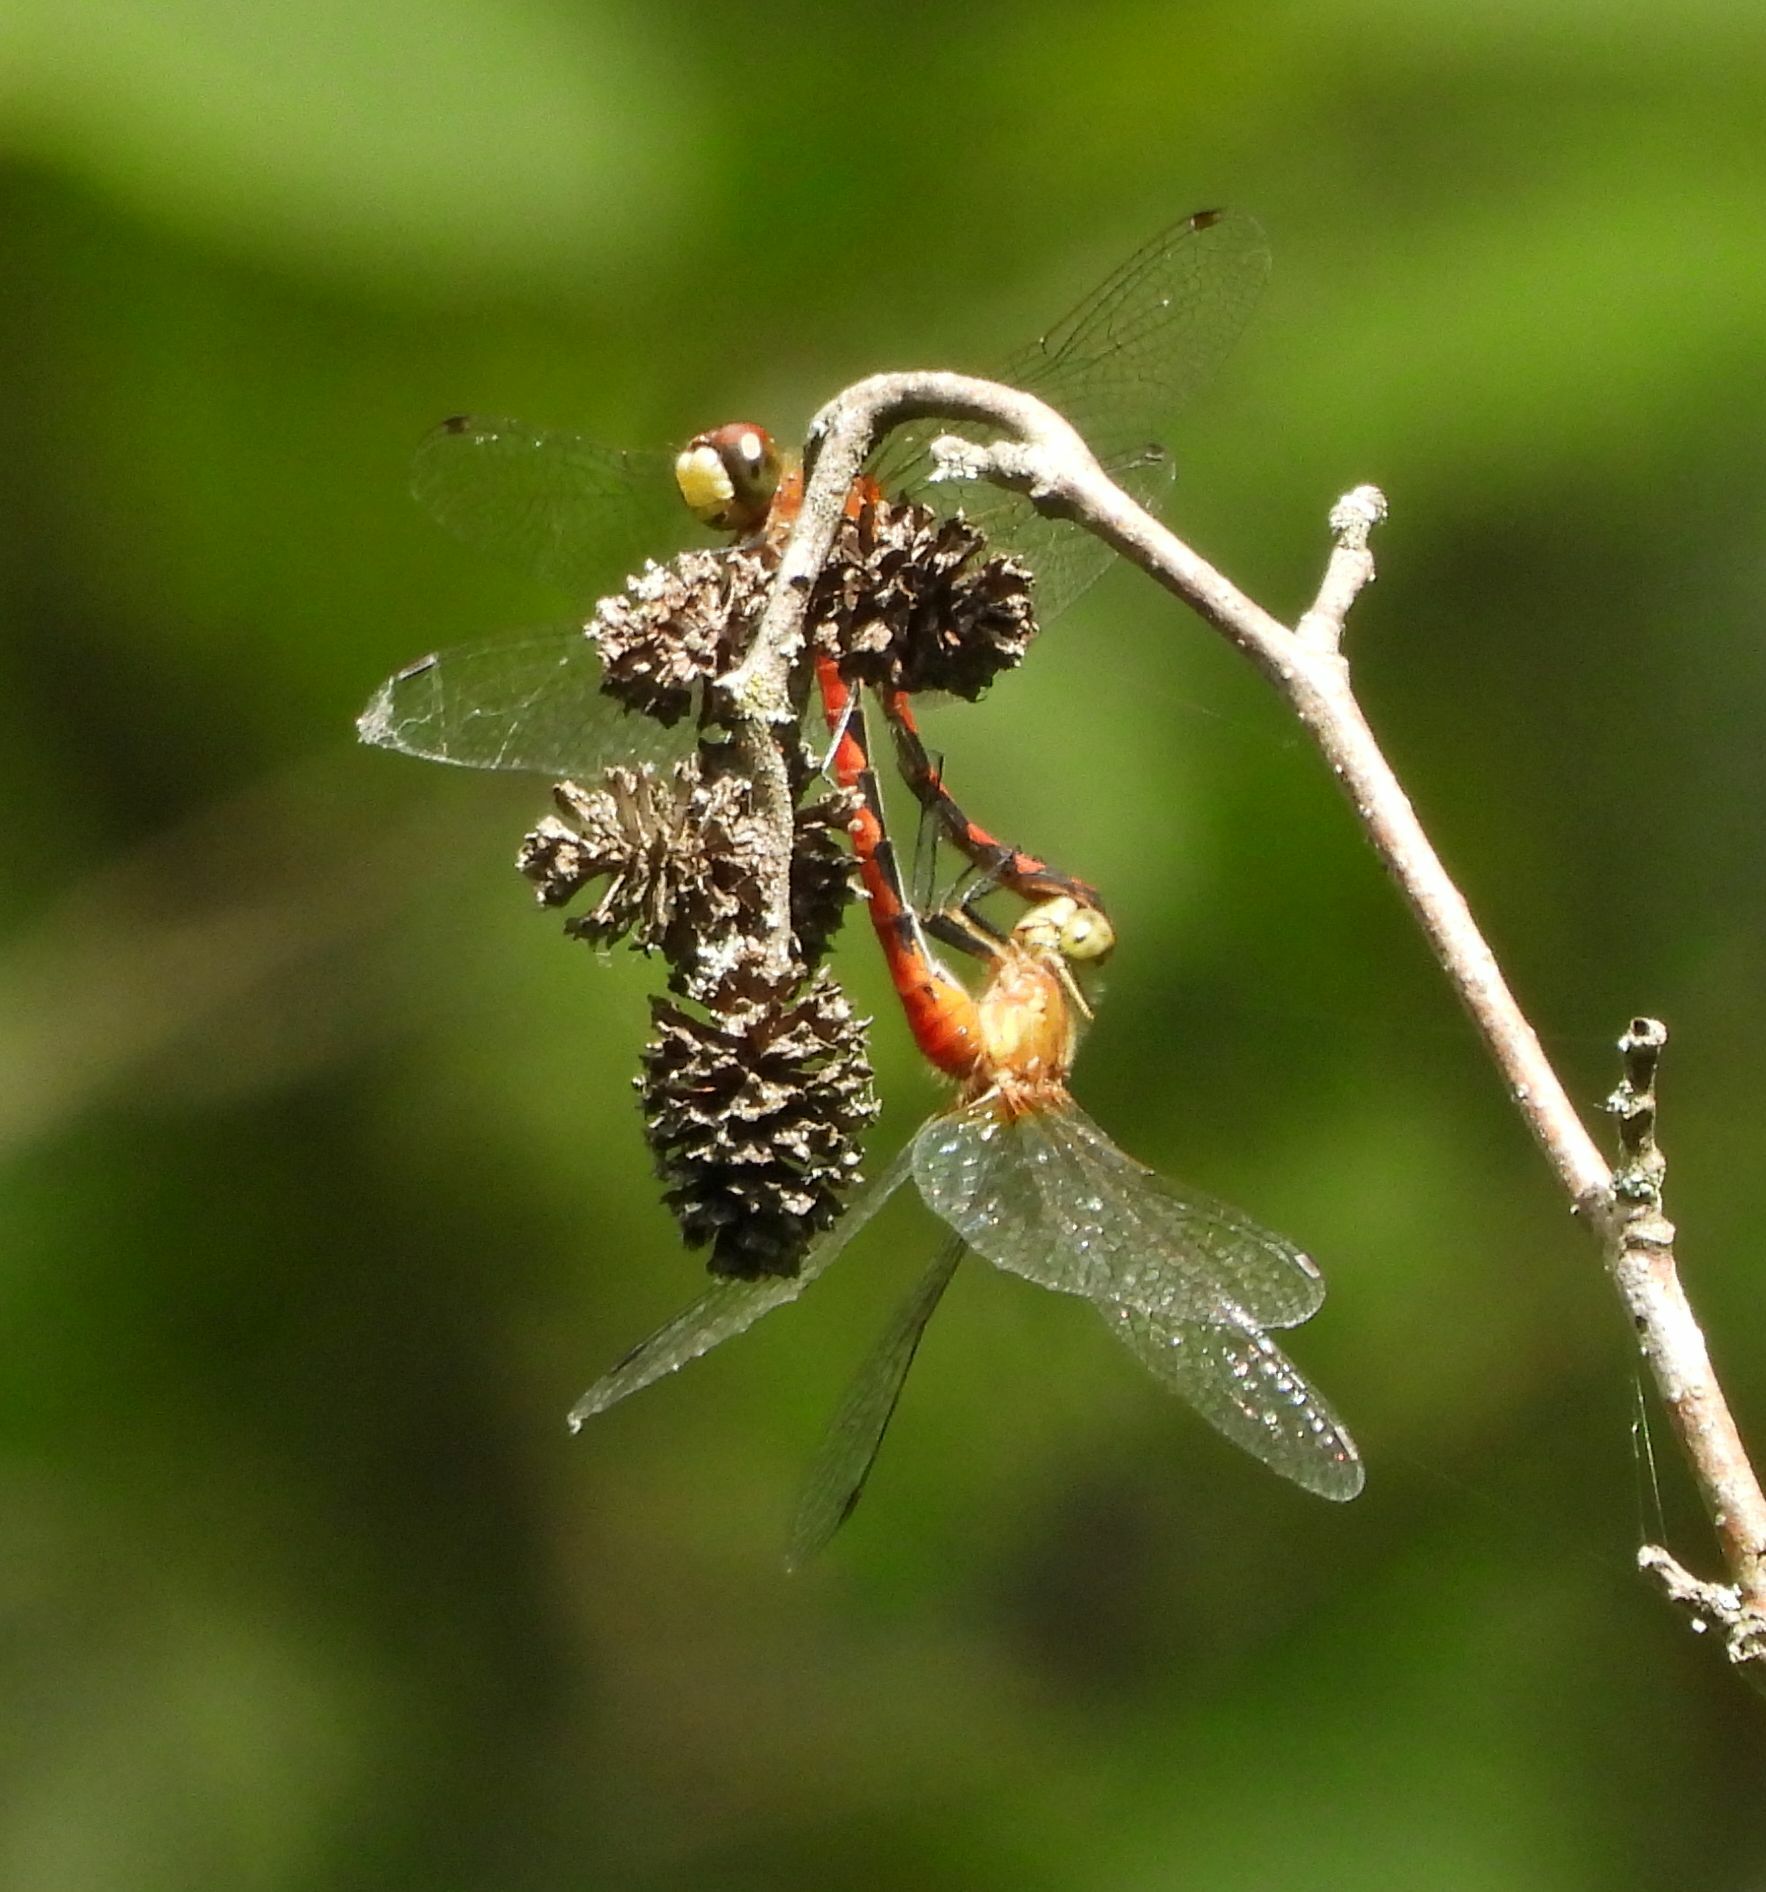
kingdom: Animalia
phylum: Arthropoda
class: Insecta
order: Odonata
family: Libellulidae
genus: Sympetrum
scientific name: Sympetrum obtrusum
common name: White-faced meadowhawk
